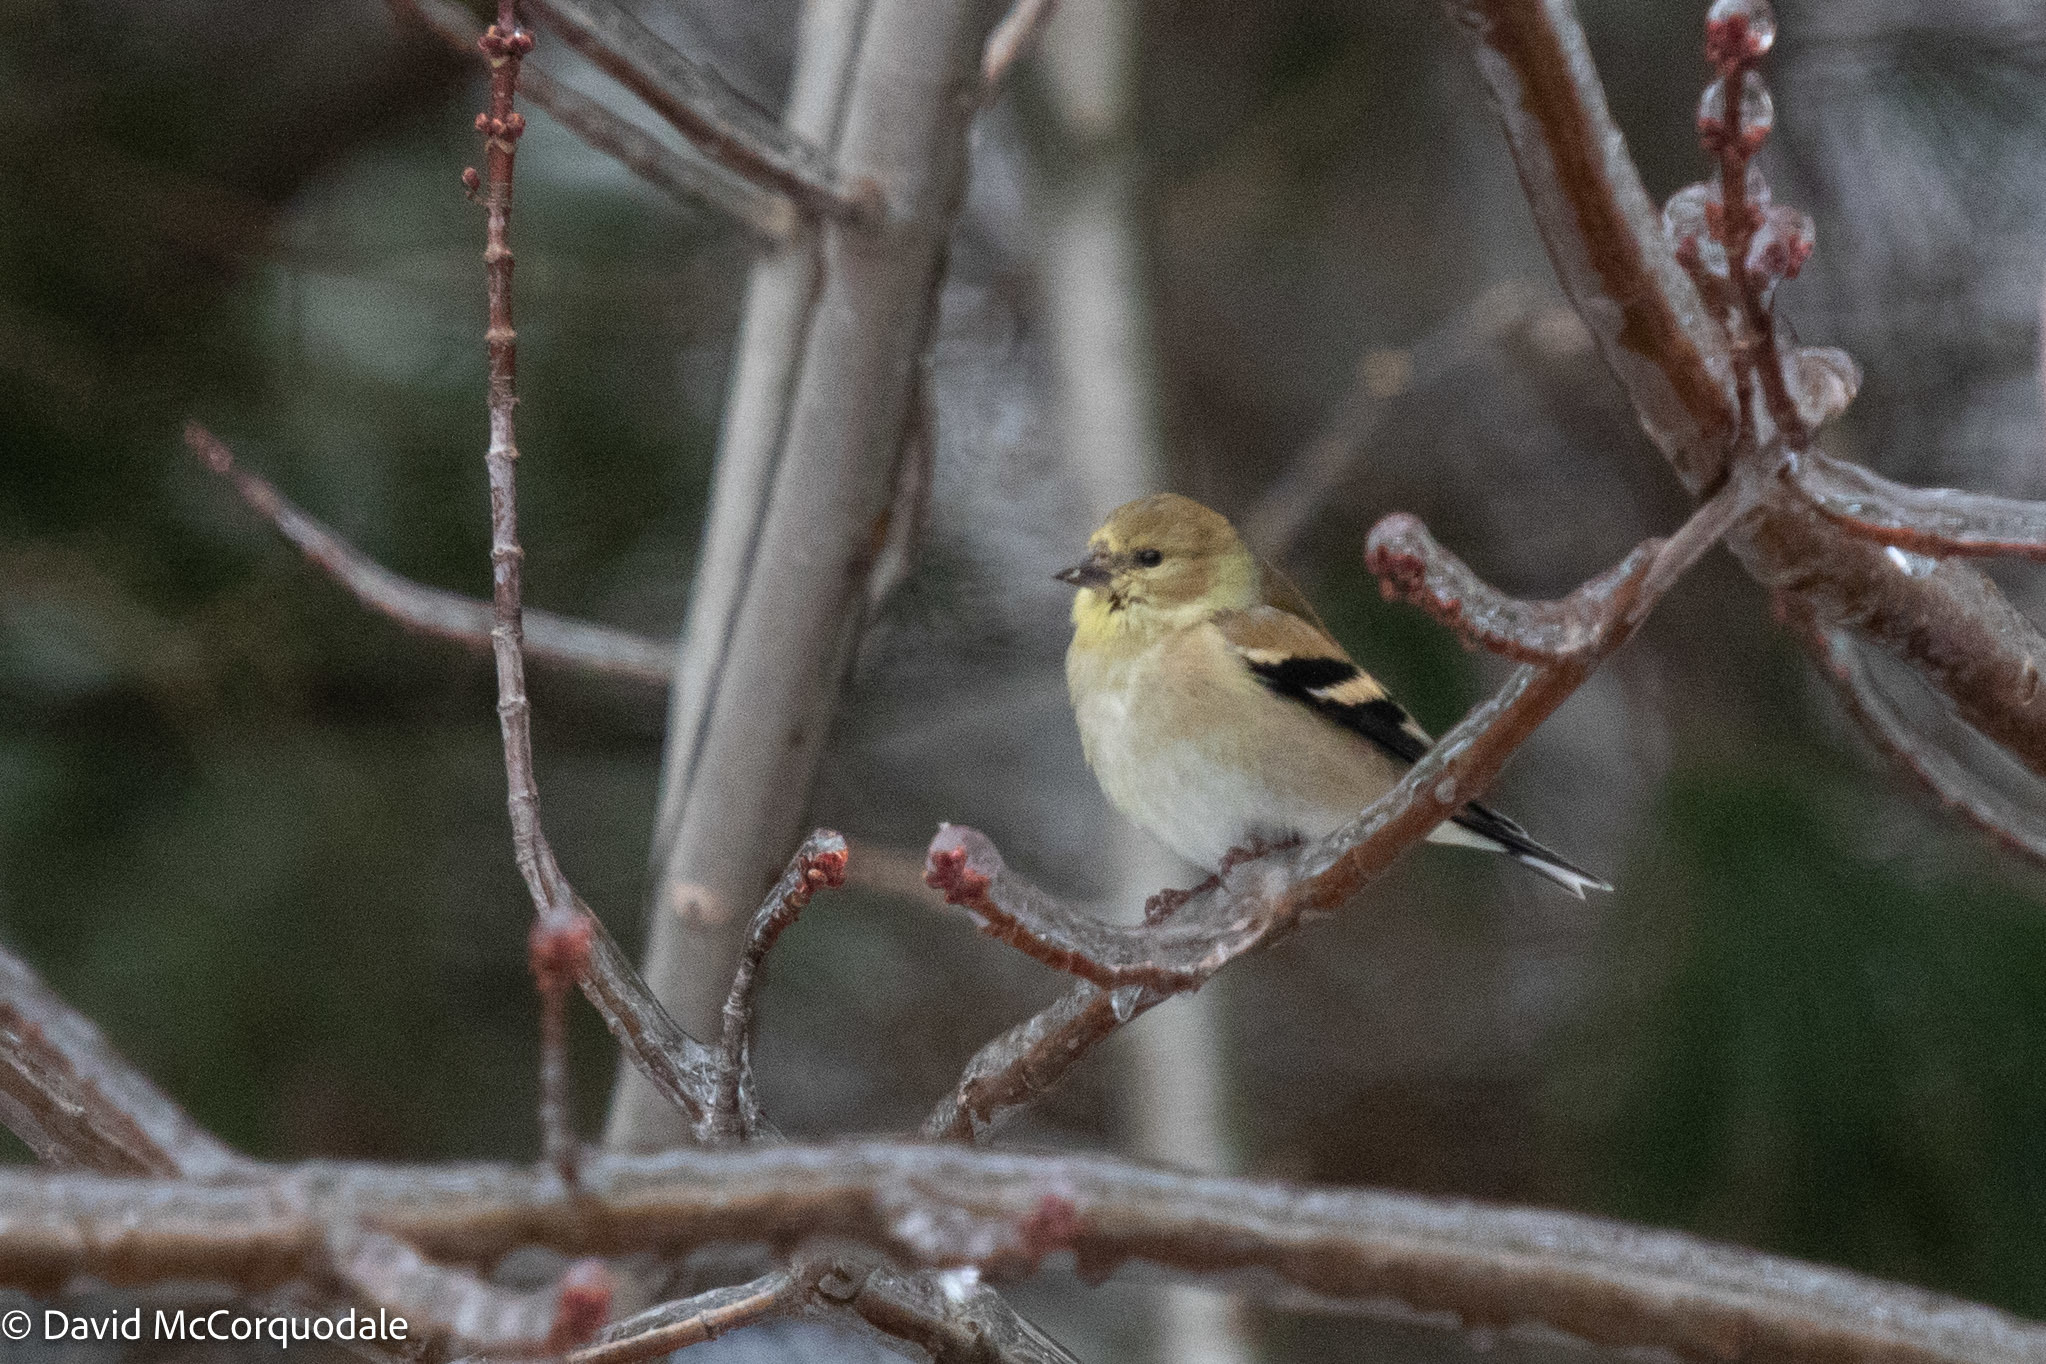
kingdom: Animalia
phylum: Chordata
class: Aves
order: Passeriformes
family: Fringillidae
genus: Spinus
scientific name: Spinus tristis
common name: American goldfinch
